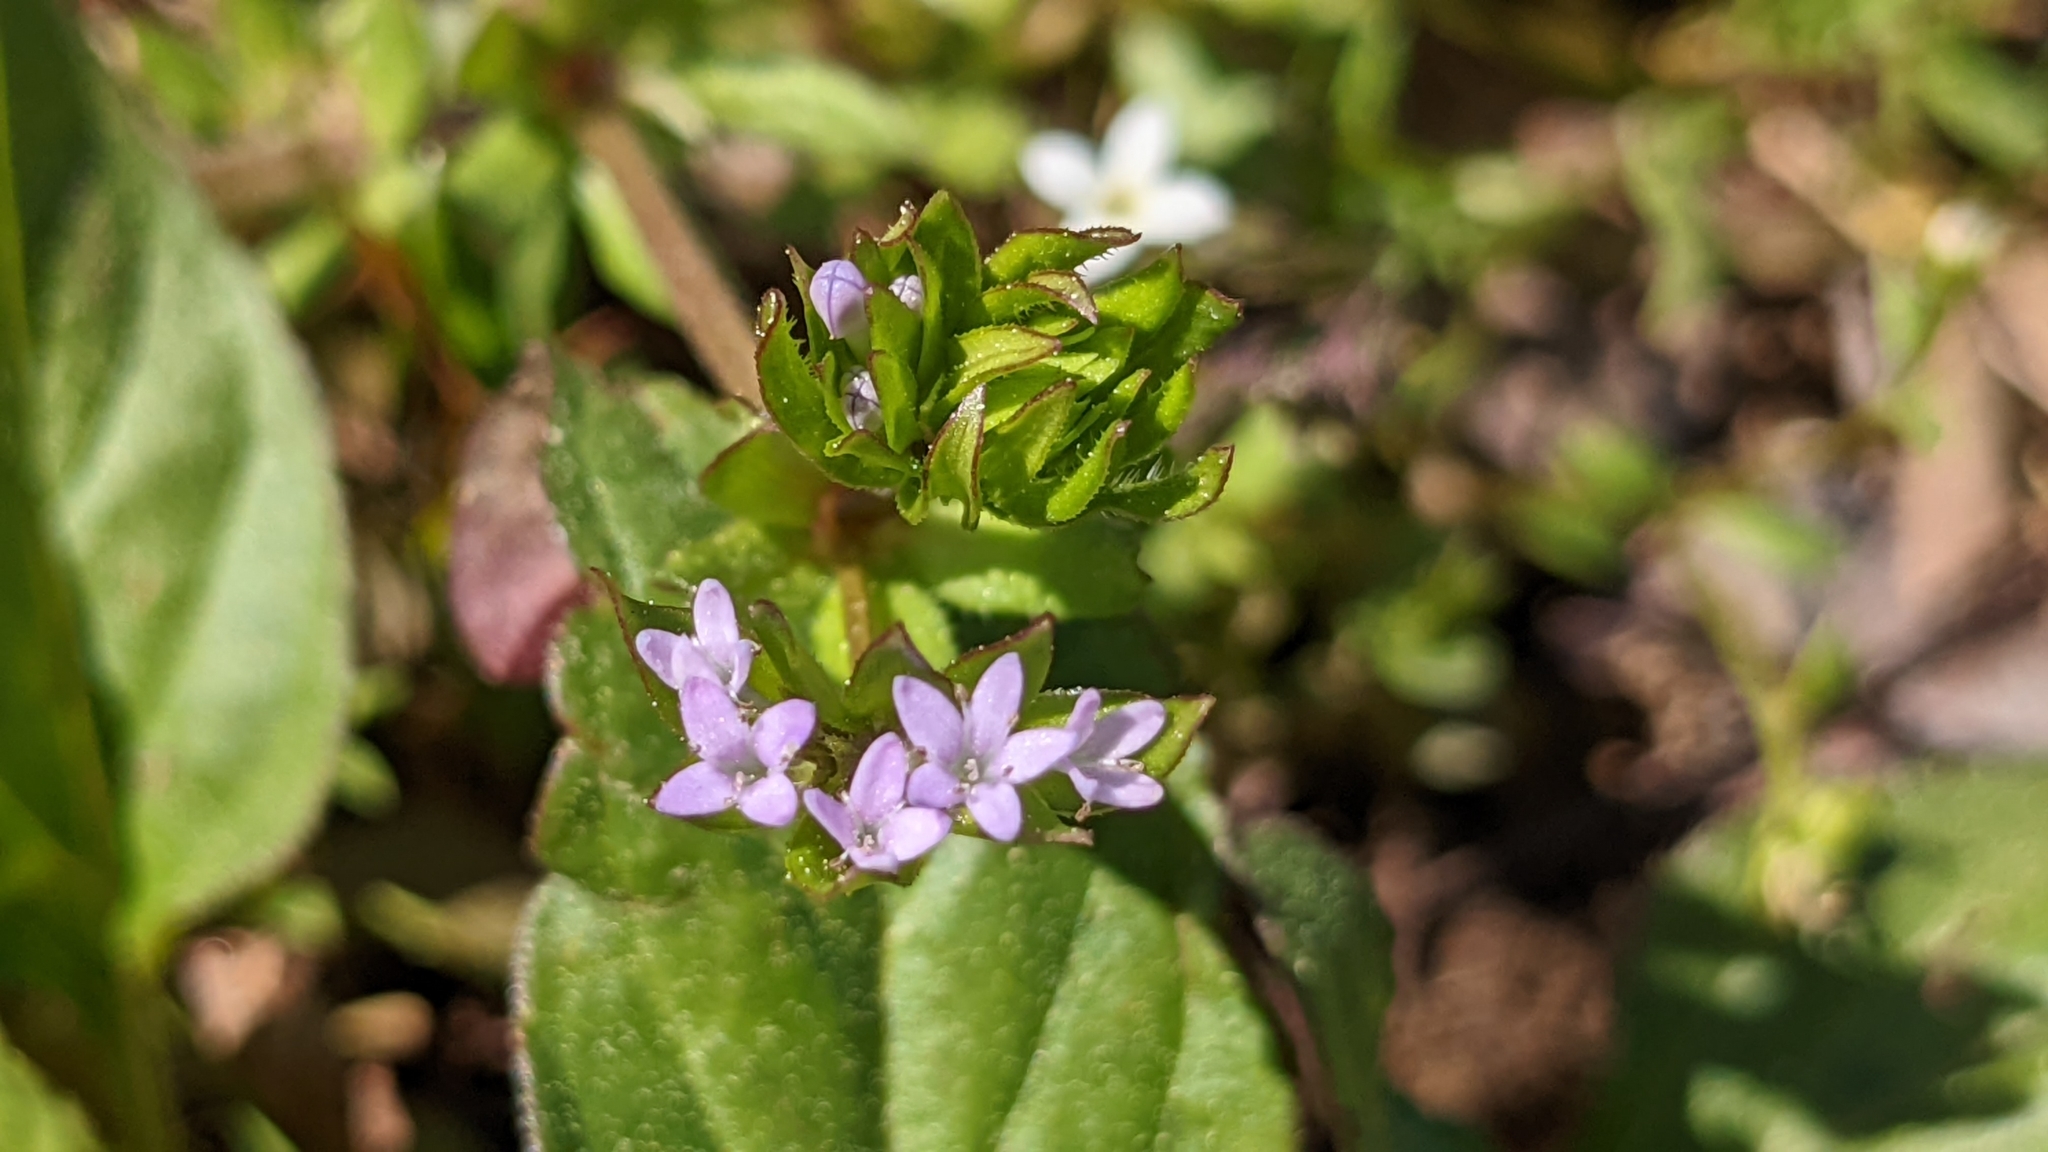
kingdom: Plantae
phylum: Tracheophyta
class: Magnoliopsida
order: Gentianales
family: Rubiaceae
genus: Sherardia
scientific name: Sherardia arvensis
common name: Field madder
